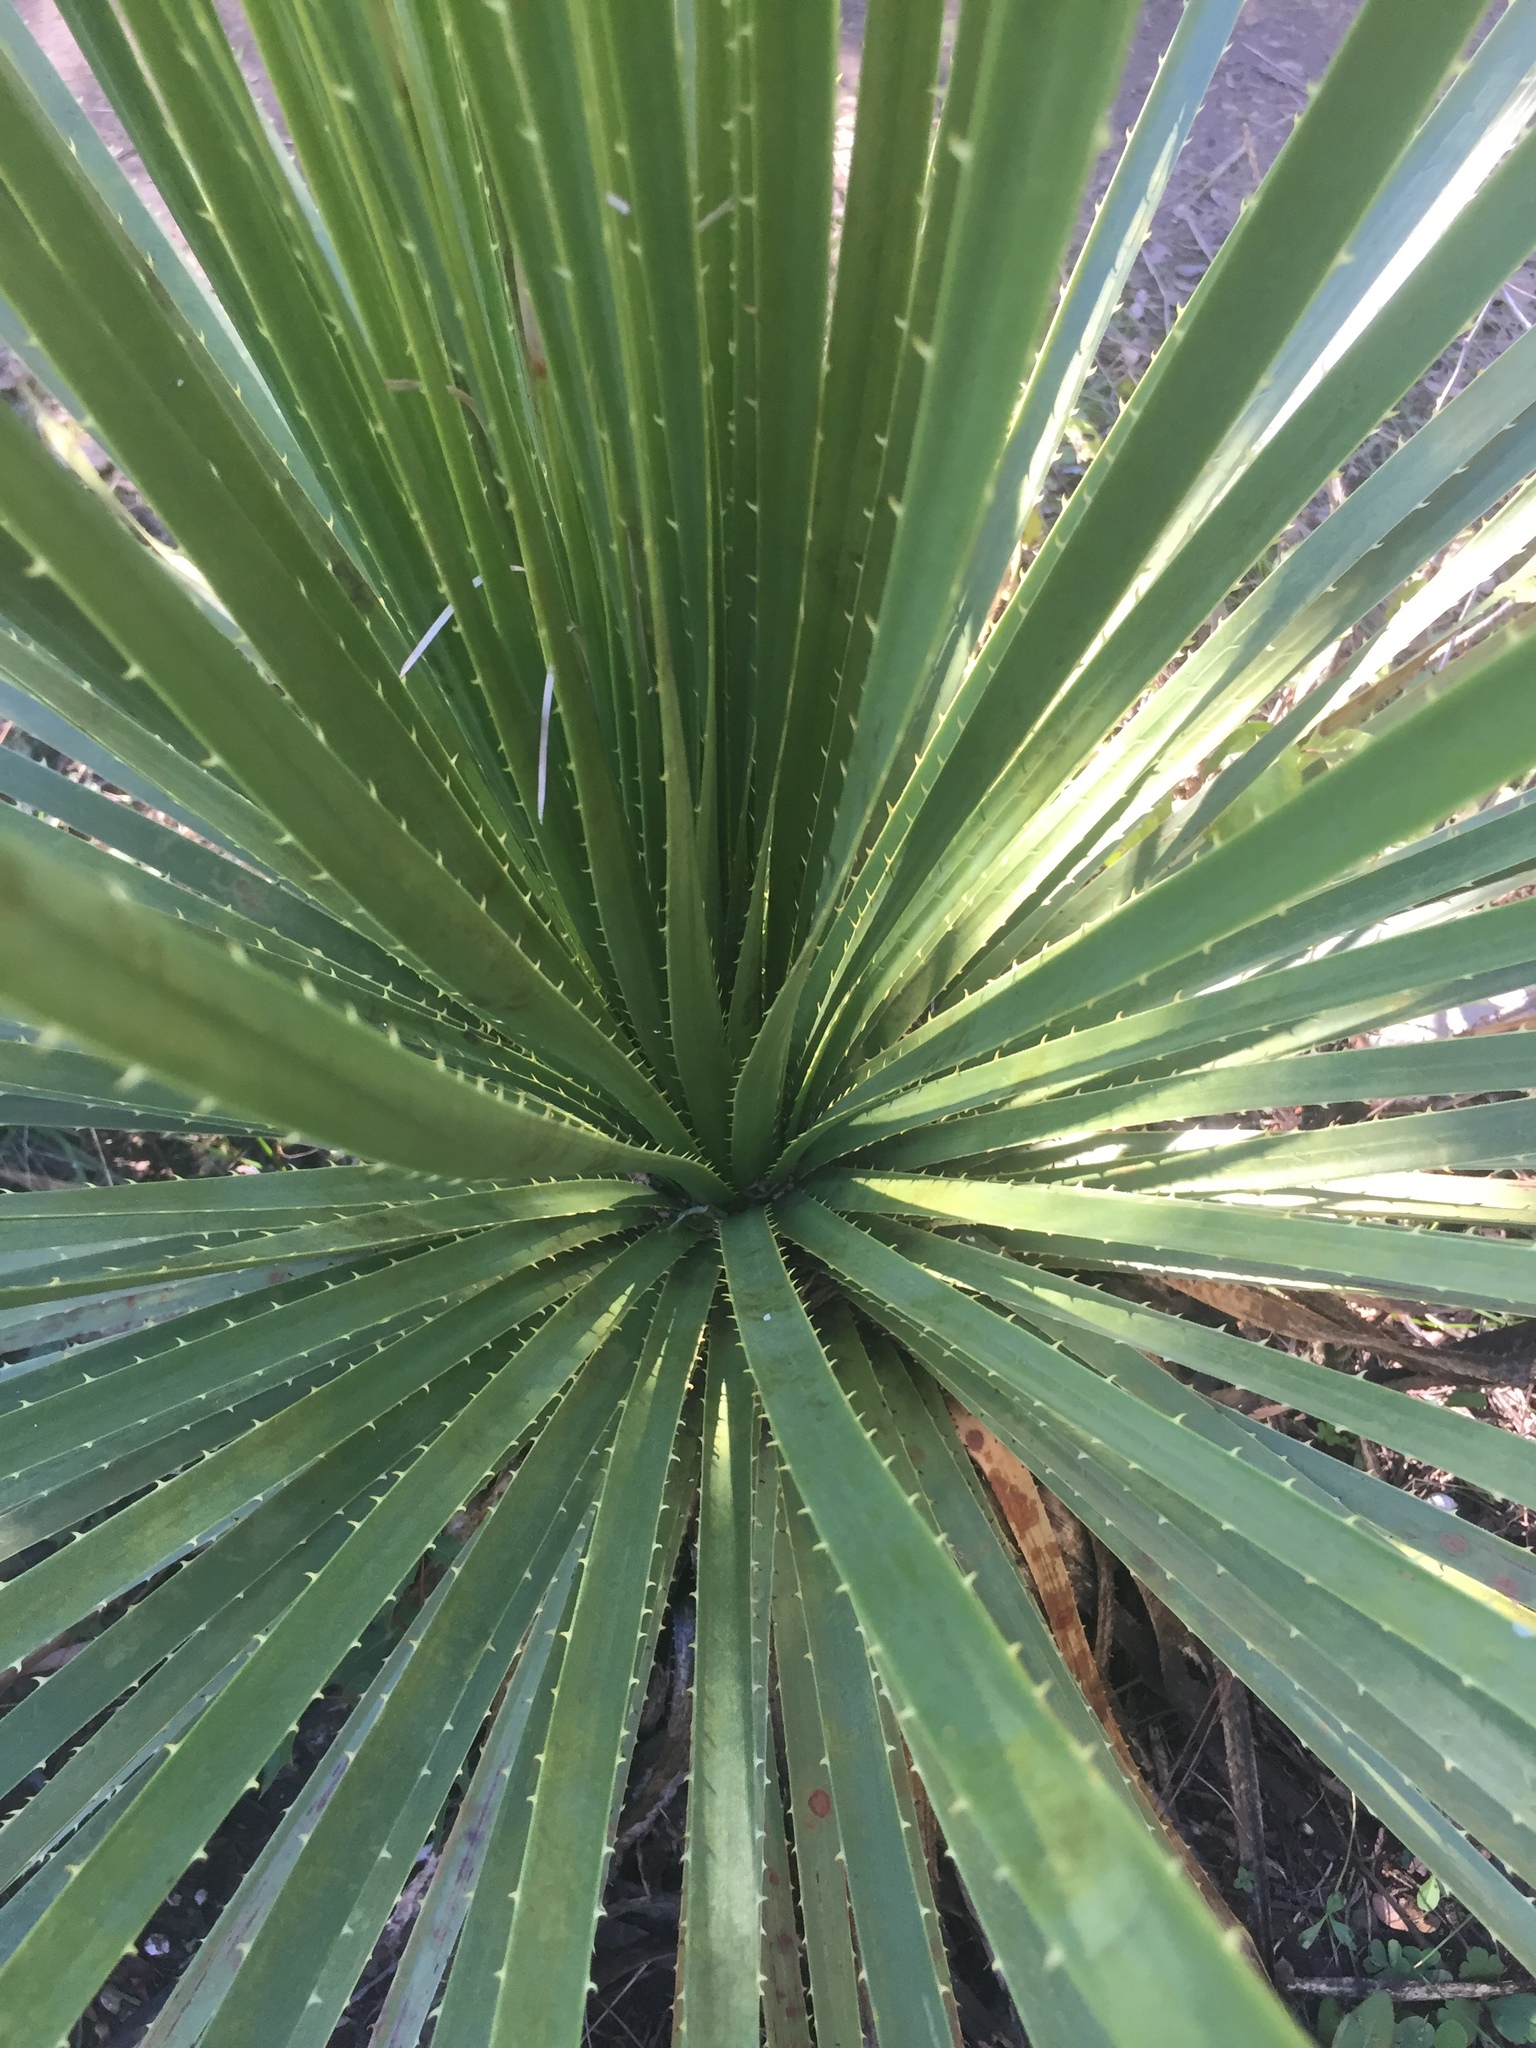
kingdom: Plantae
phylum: Tracheophyta
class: Liliopsida
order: Asparagales
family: Asparagaceae
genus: Dasylirion
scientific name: Dasylirion texanum
